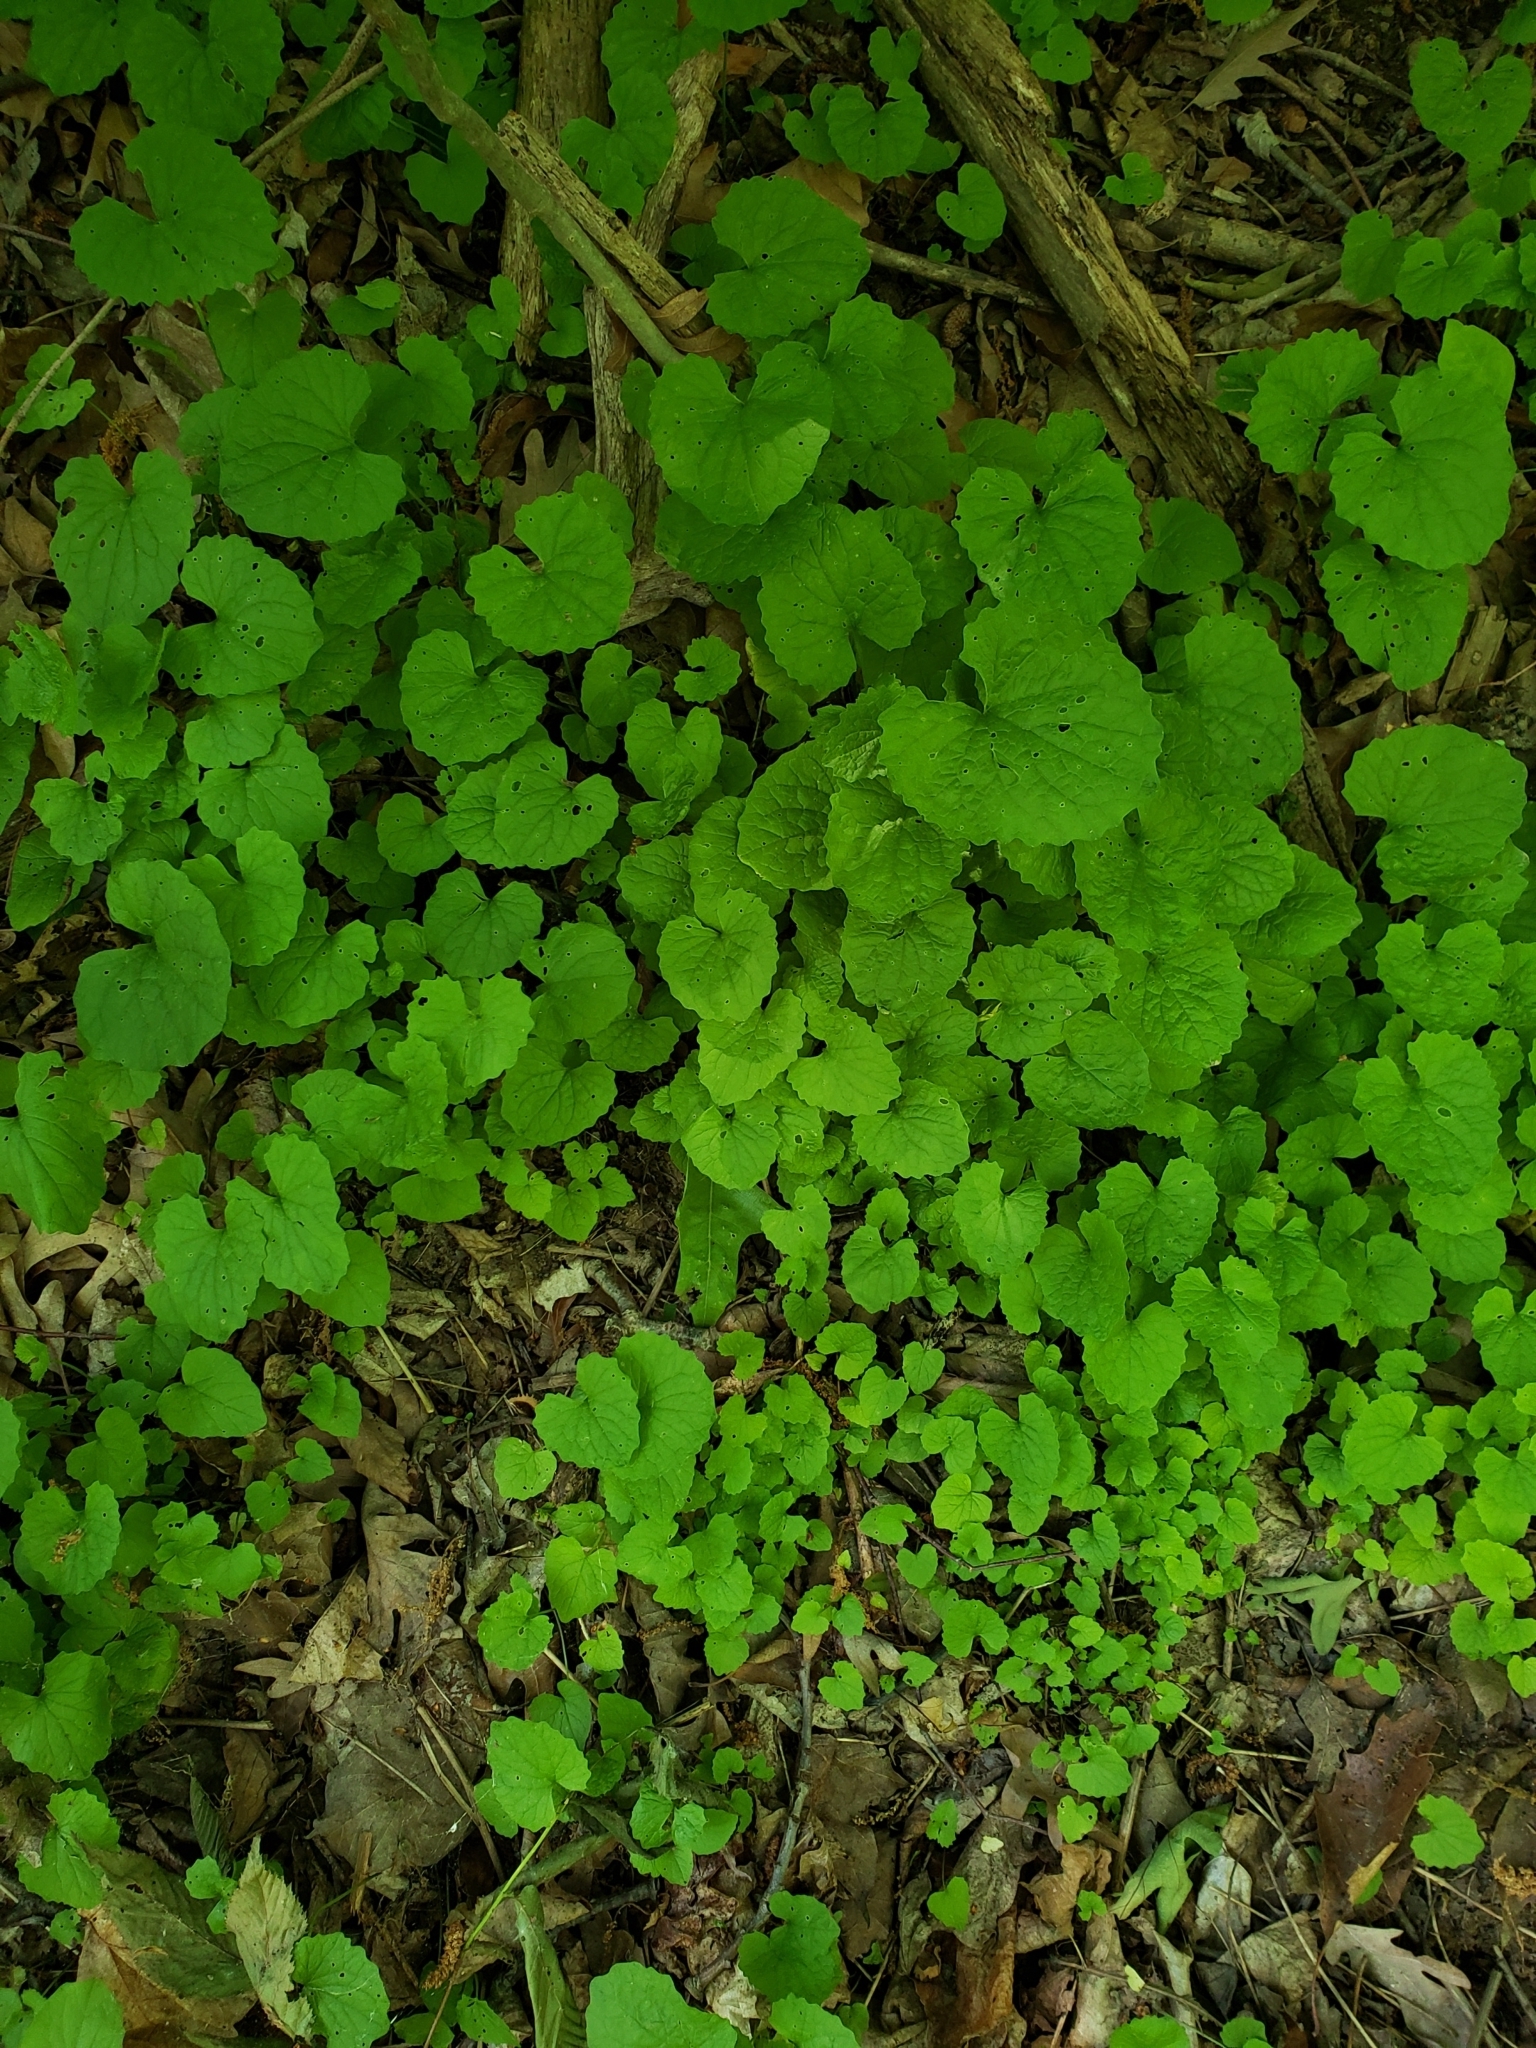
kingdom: Plantae
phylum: Tracheophyta
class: Magnoliopsida
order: Brassicales
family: Brassicaceae
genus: Alliaria
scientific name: Alliaria petiolata
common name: Garlic mustard
